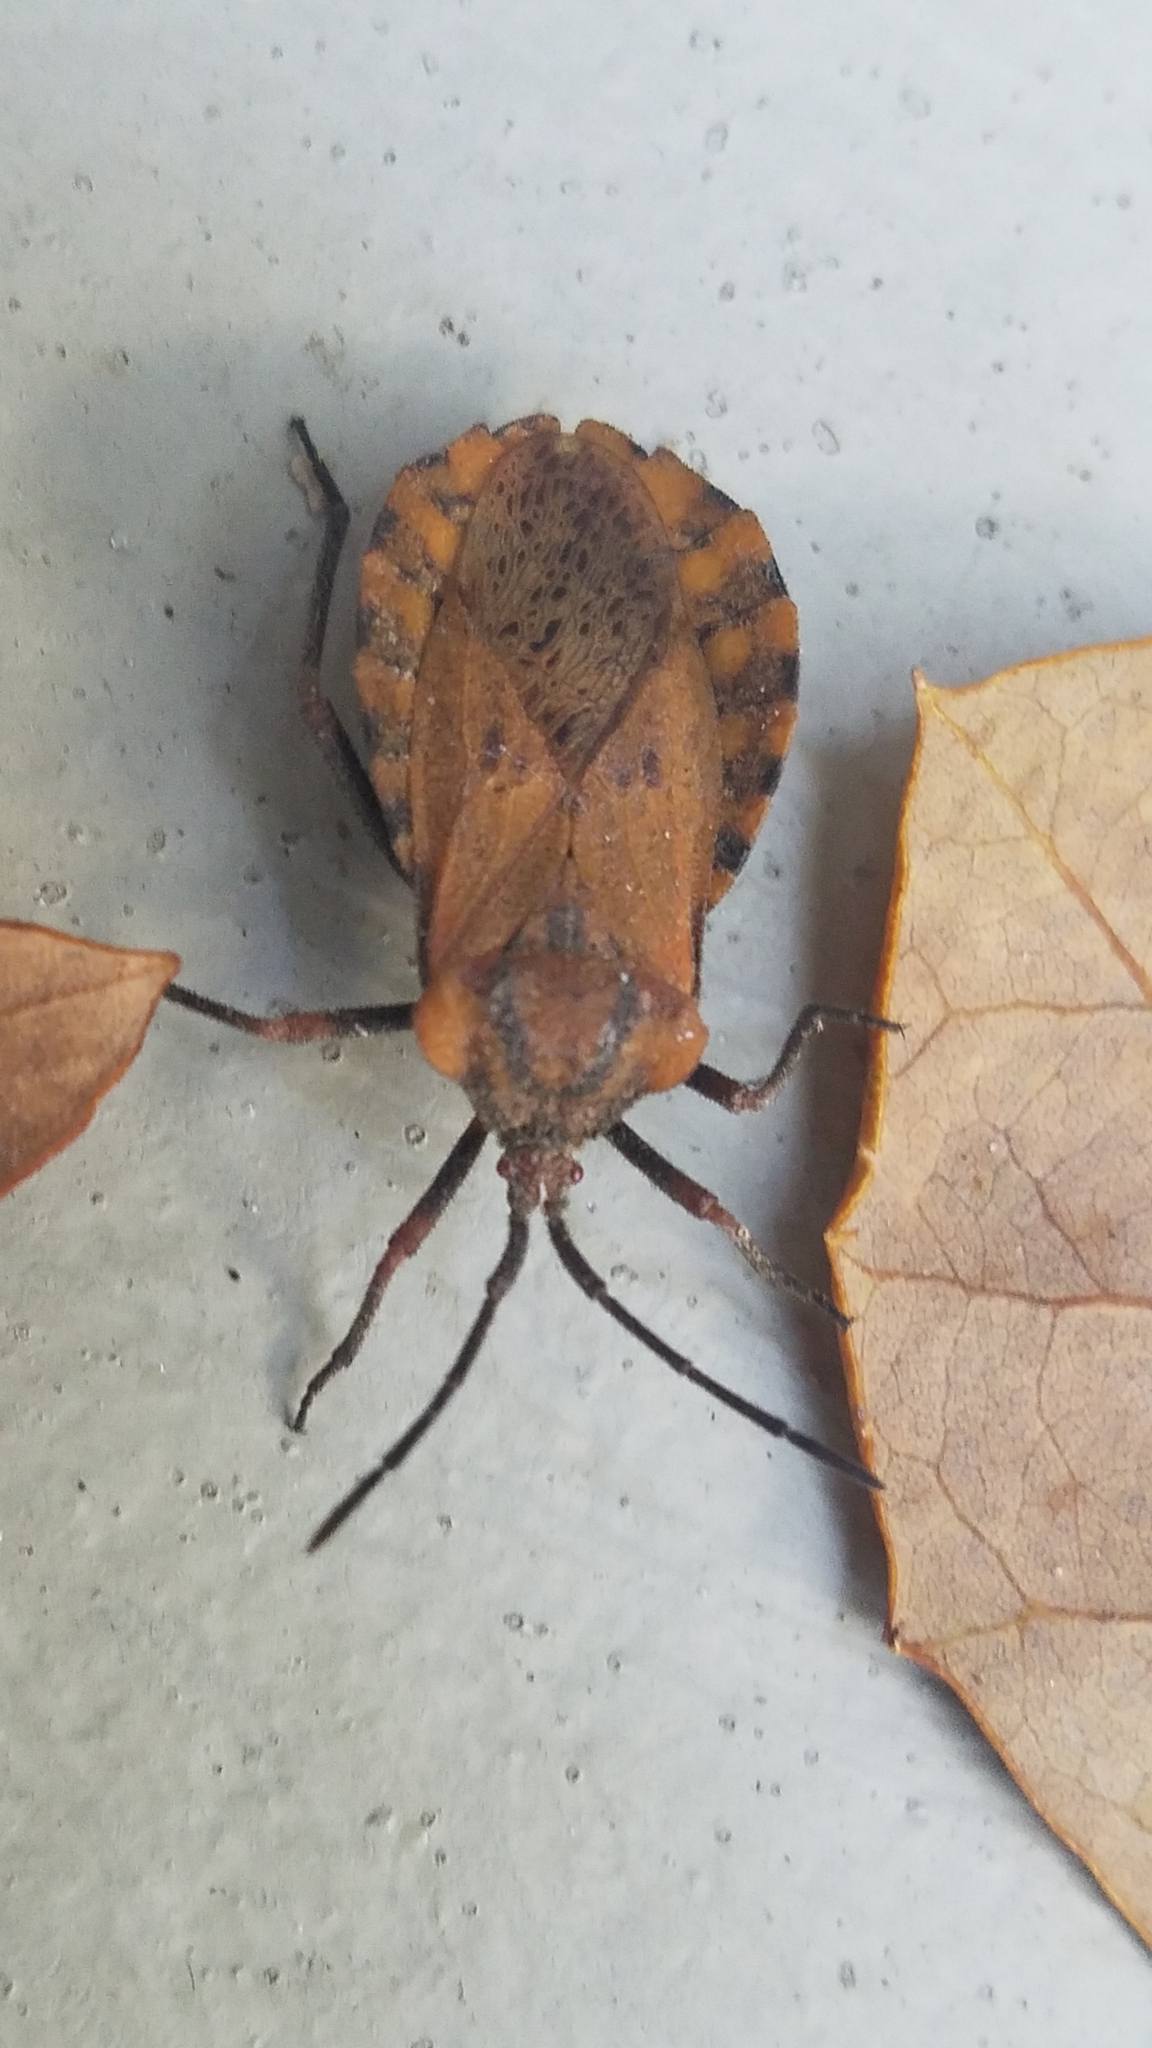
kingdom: Animalia
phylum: Arthropoda
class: Insecta
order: Hemiptera
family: Coreidae
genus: Spartocera
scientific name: Spartocera fusca
